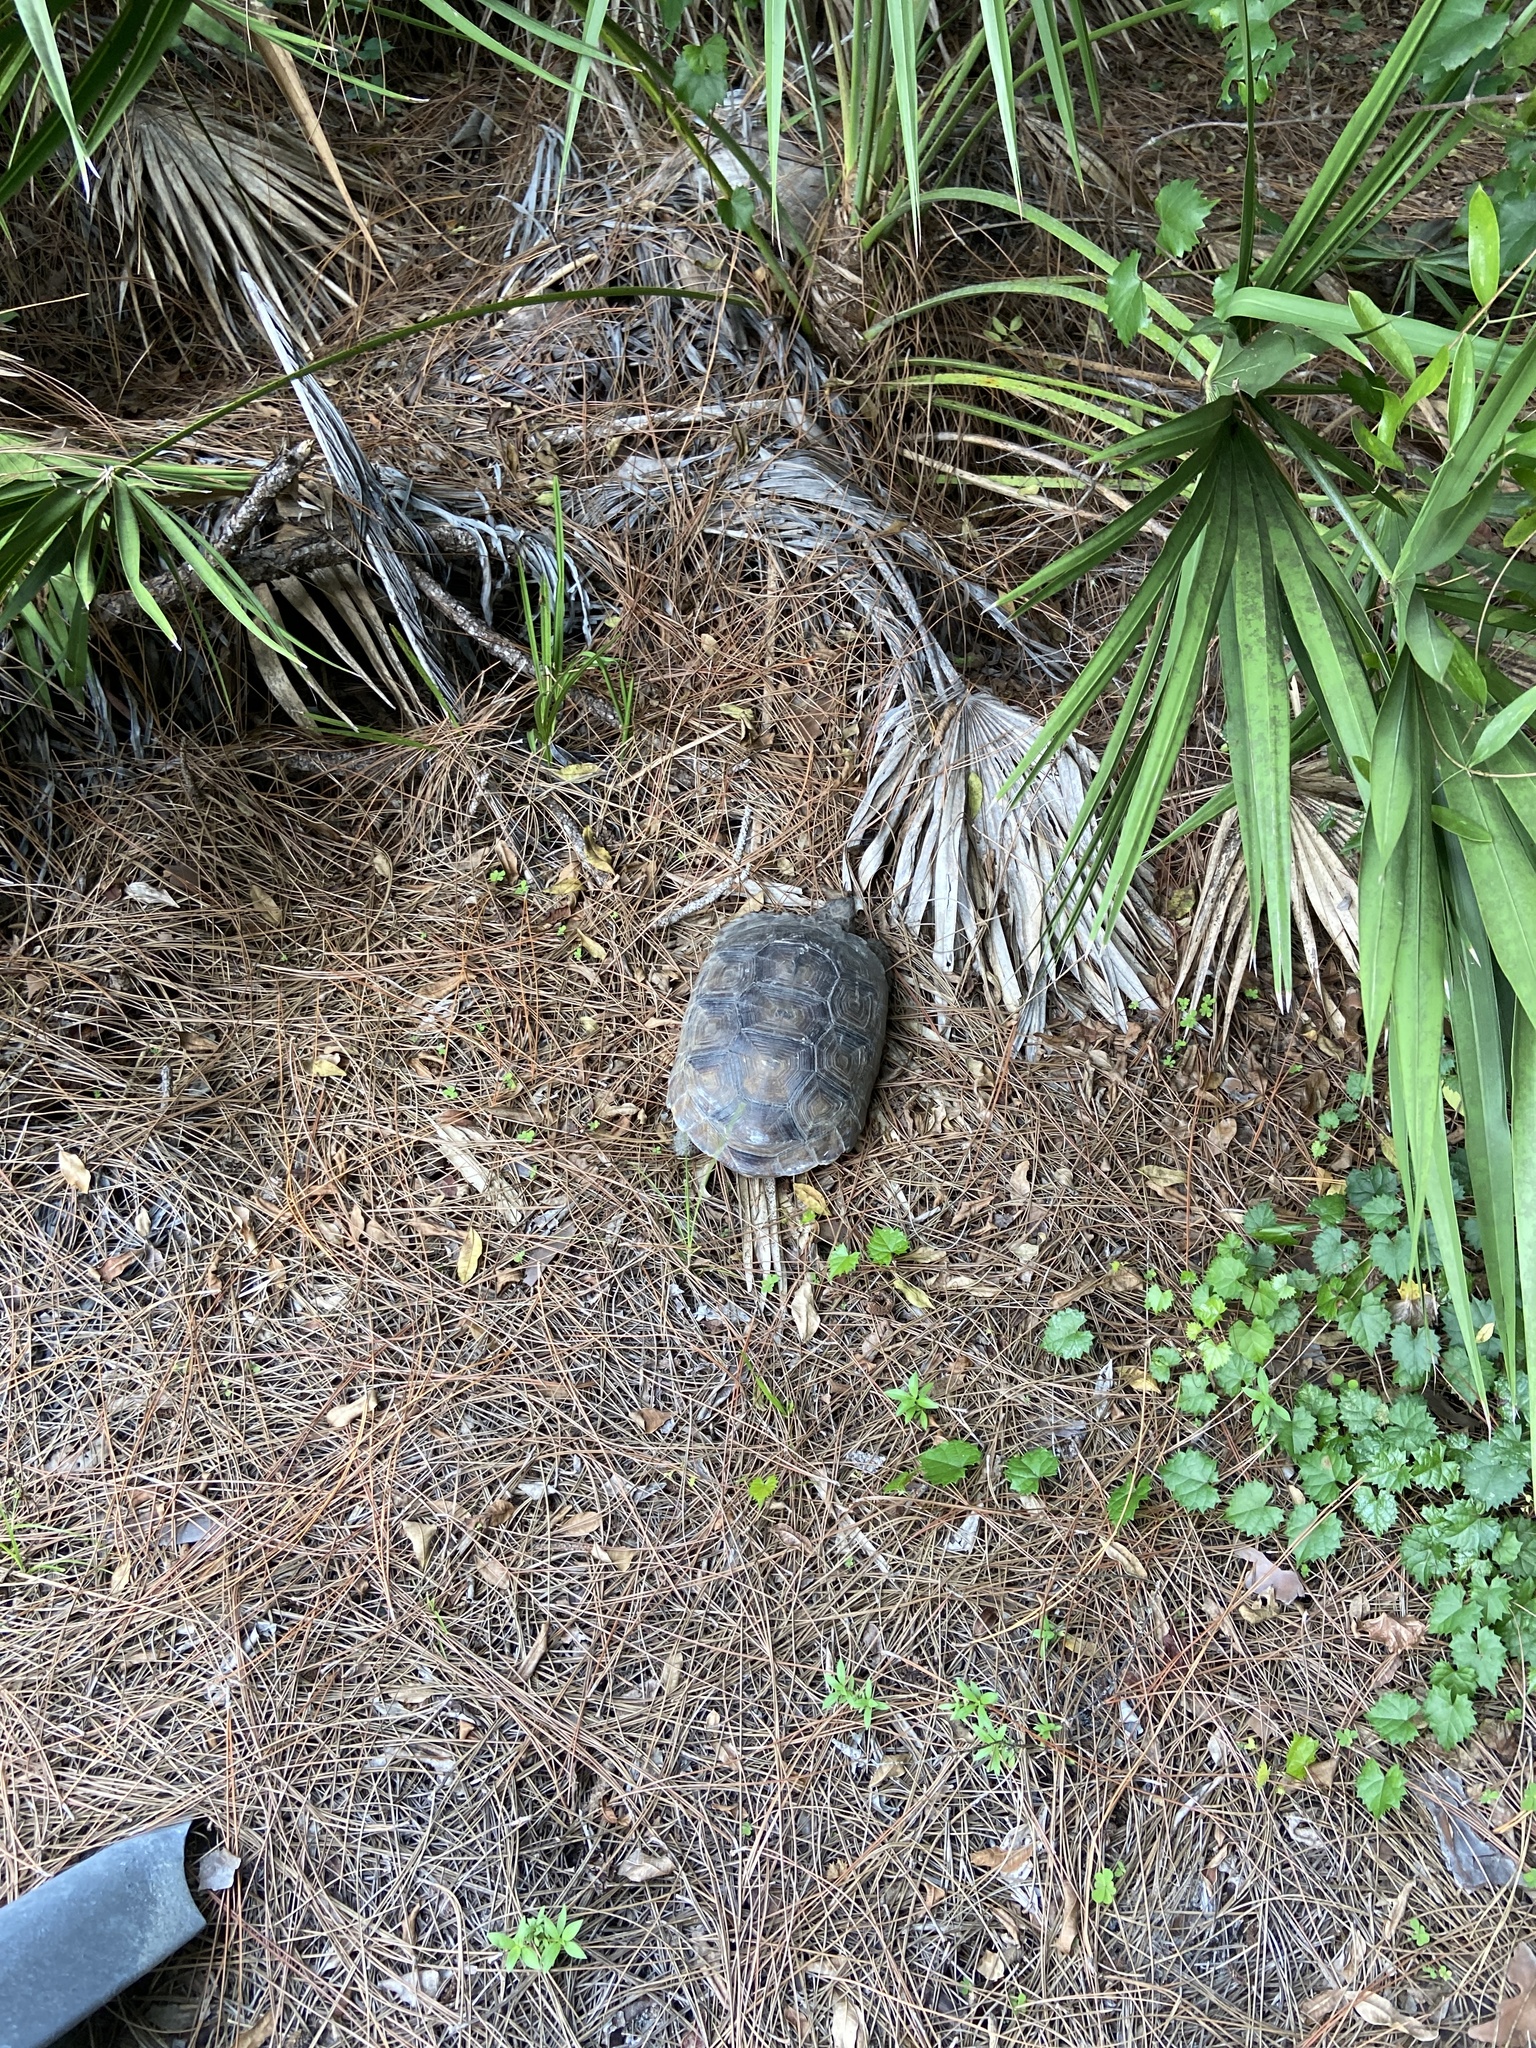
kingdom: Animalia
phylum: Chordata
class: Testudines
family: Testudinidae
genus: Gopherus
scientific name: Gopherus polyphemus
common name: Florida gopher tortoise
